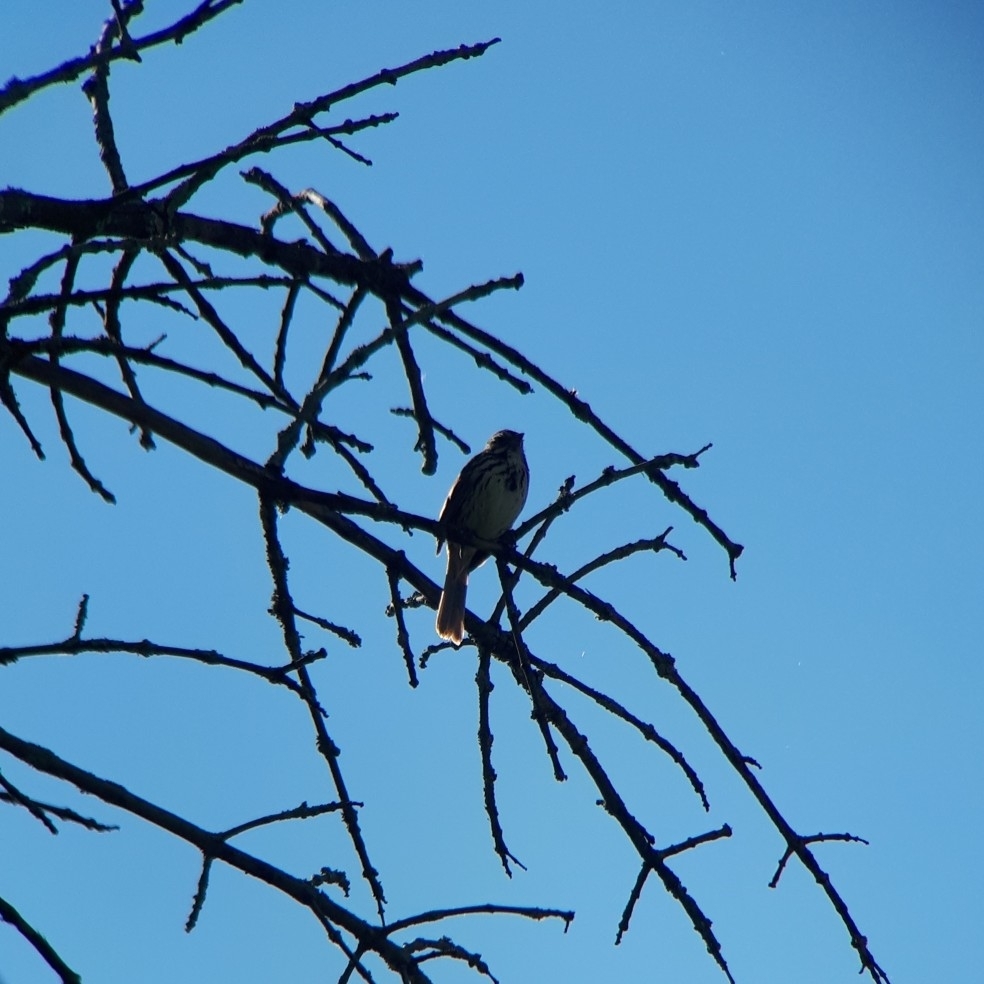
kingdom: Animalia
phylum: Chordata
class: Aves
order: Passeriformes
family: Passerellidae
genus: Melospiza
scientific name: Melospiza melodia
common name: Song sparrow
